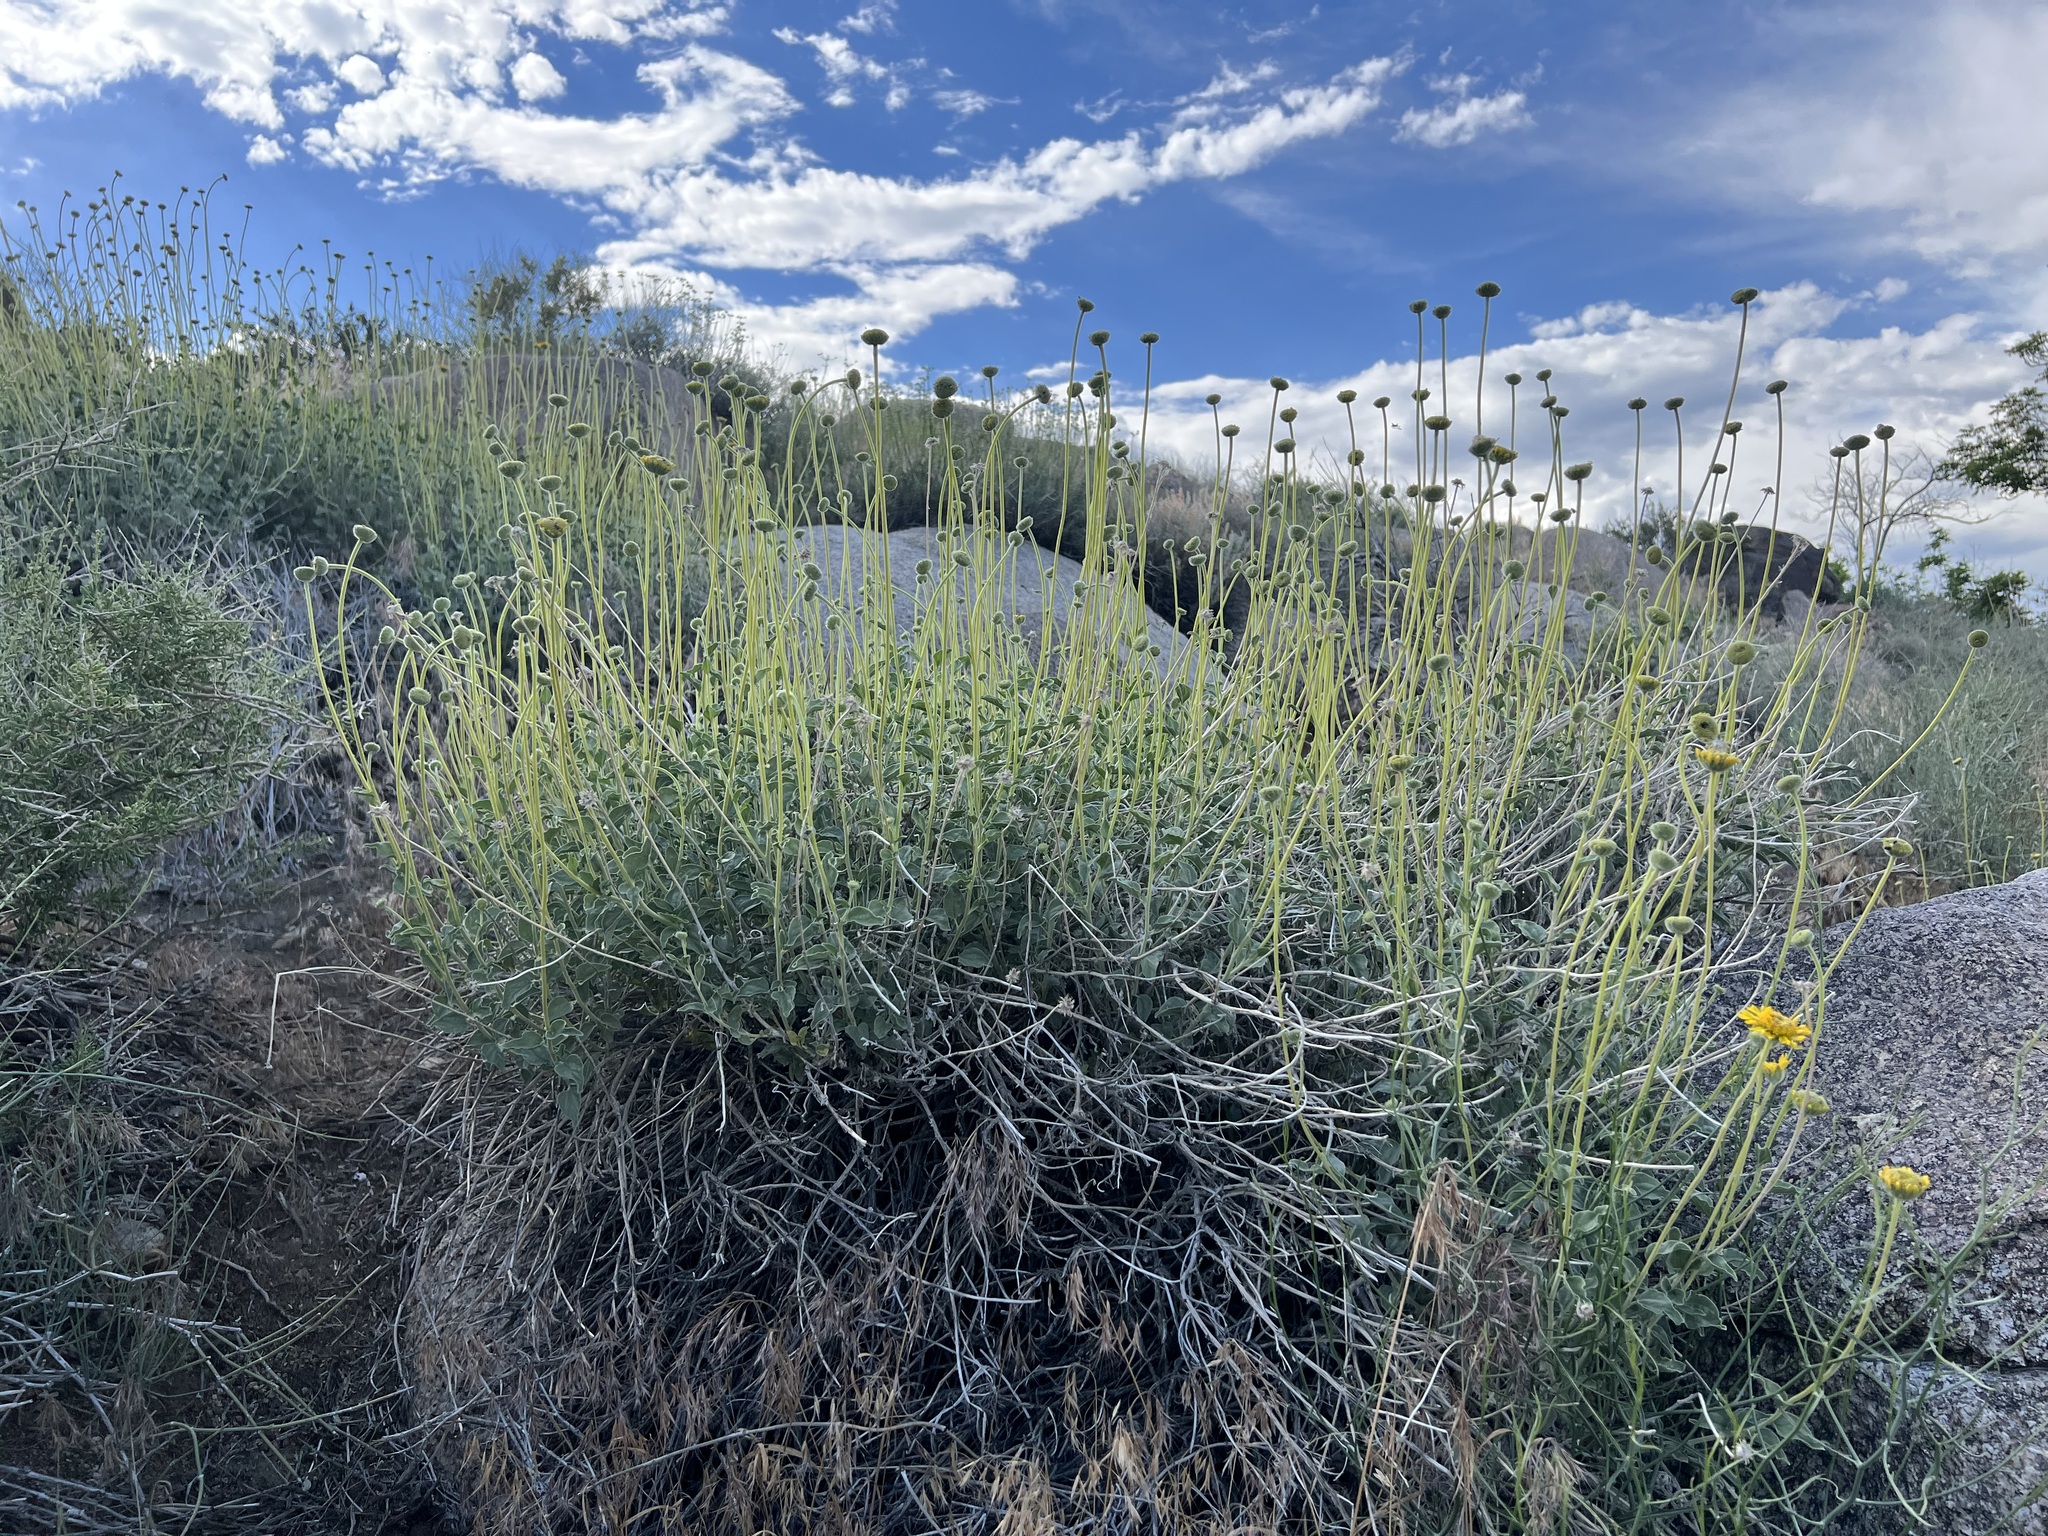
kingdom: Plantae
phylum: Tracheophyta
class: Magnoliopsida
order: Asterales
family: Asteraceae
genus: Encelia
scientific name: Encelia actoni
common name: Acton encelia
